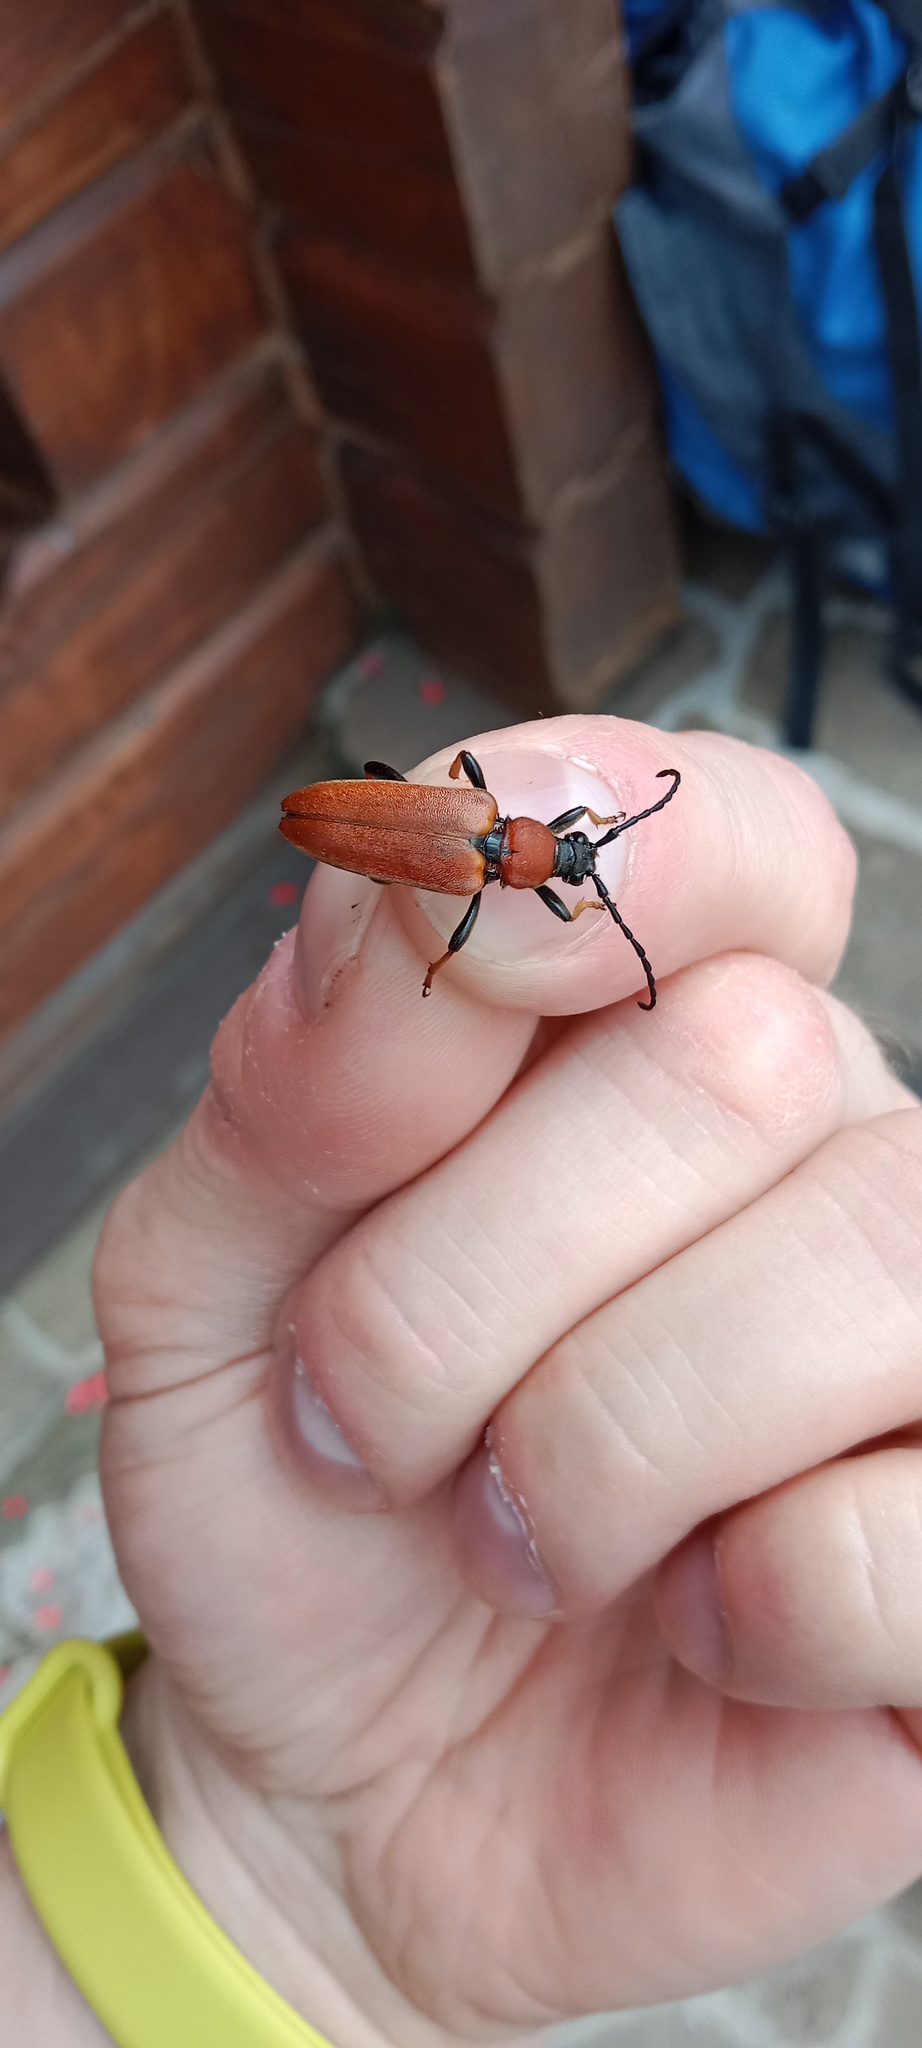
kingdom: Animalia
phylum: Arthropoda
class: Insecta
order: Coleoptera
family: Cerambycidae
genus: Stictoleptura
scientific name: Stictoleptura rubra
